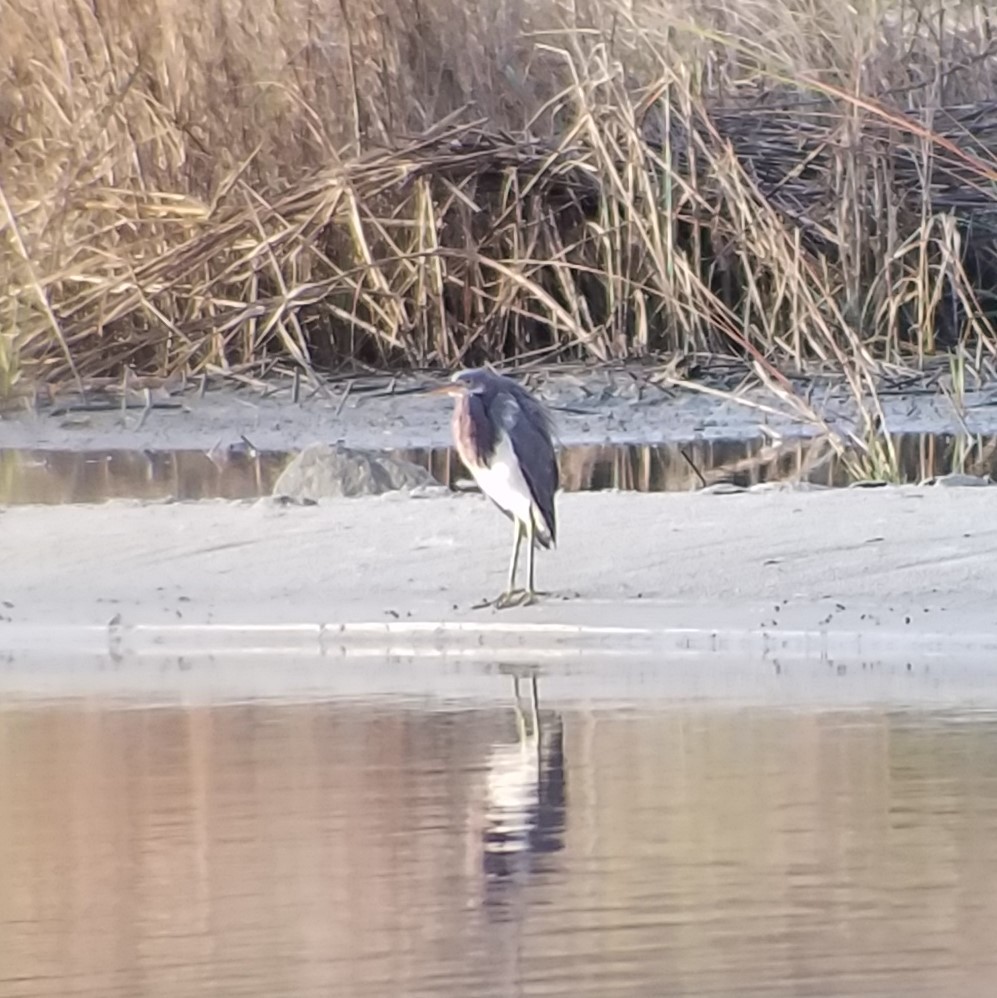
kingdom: Animalia
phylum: Chordata
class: Aves
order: Pelecaniformes
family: Ardeidae
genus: Egretta
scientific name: Egretta tricolor
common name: Tricolored heron
